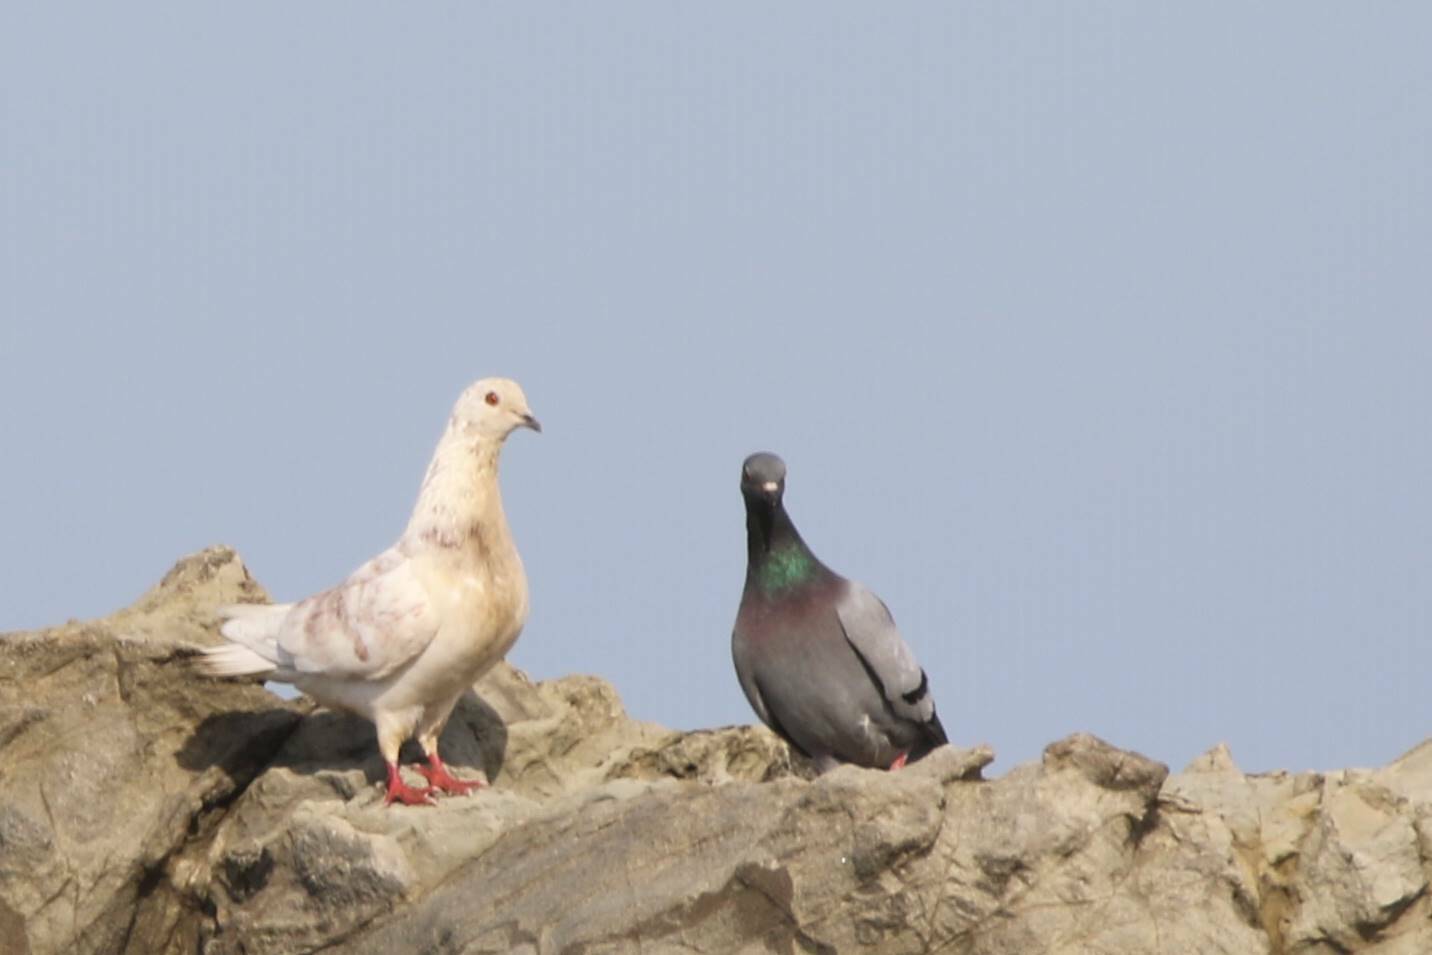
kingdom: Animalia
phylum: Chordata
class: Aves
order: Columbiformes
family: Columbidae
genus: Columba
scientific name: Columba livia
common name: Rock pigeon
